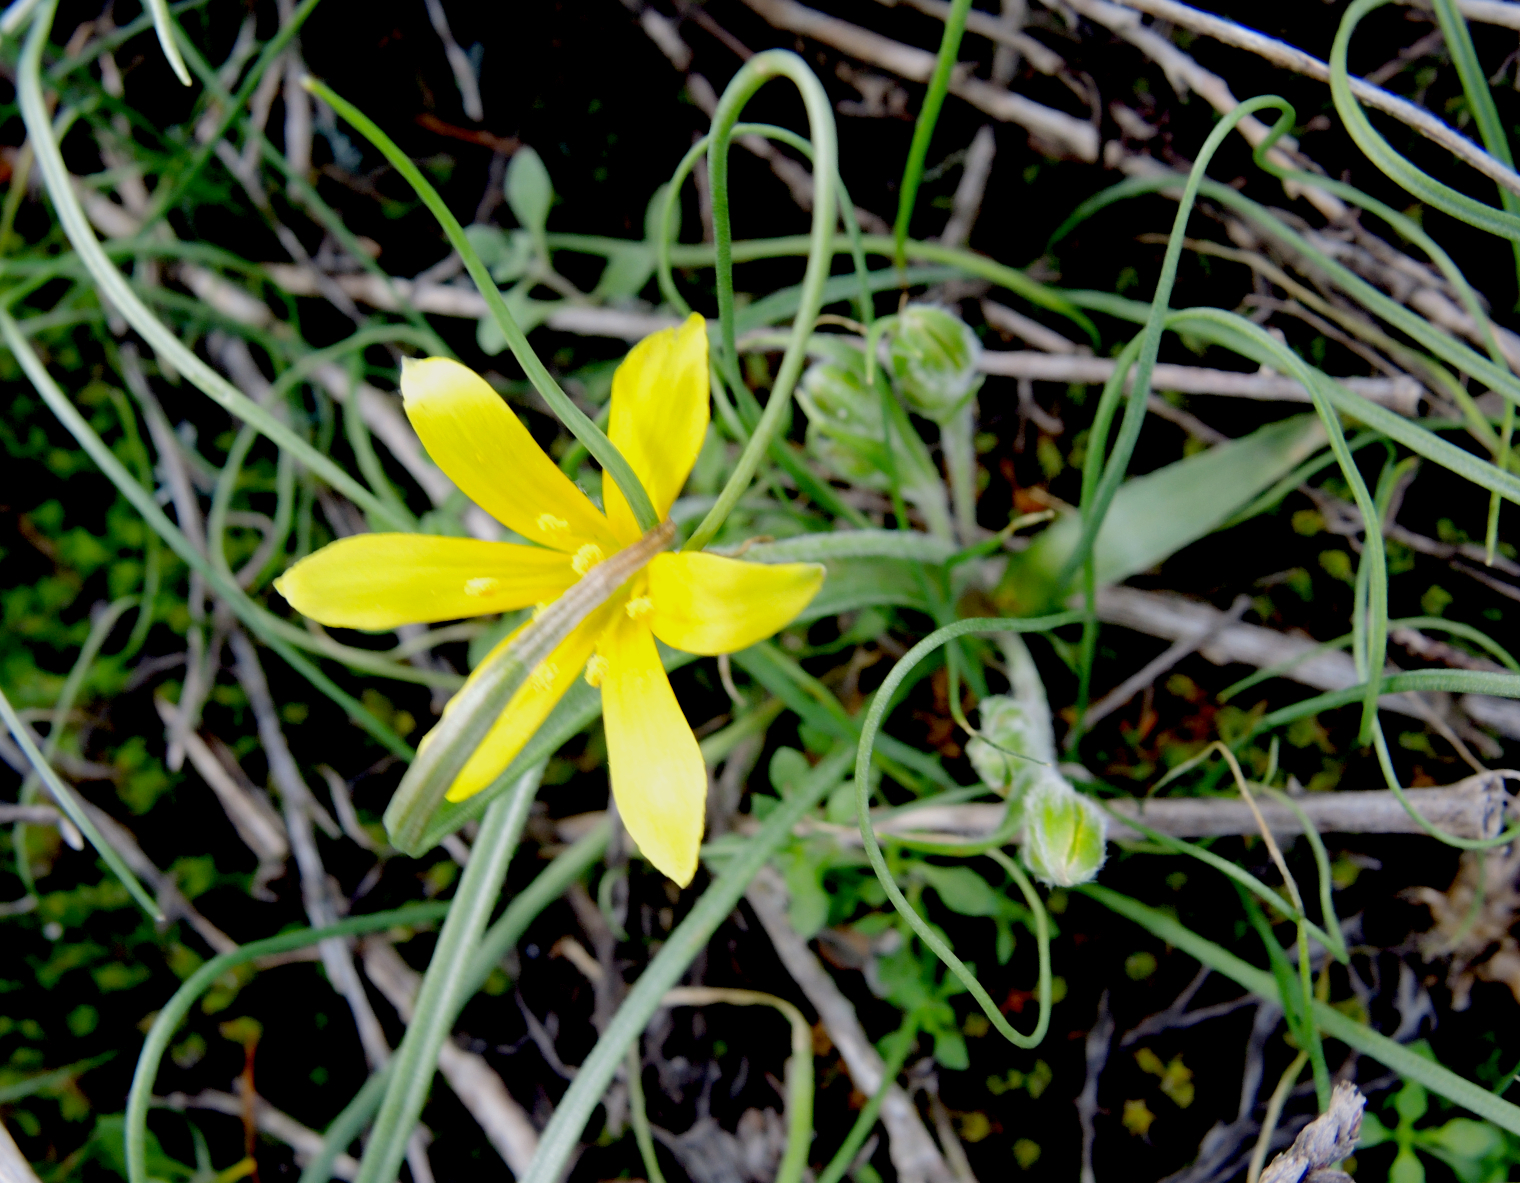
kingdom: Plantae
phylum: Tracheophyta
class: Liliopsida
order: Liliales
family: Liliaceae
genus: Gagea
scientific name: Gagea lutea
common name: Yellow star-of-bethlehem
